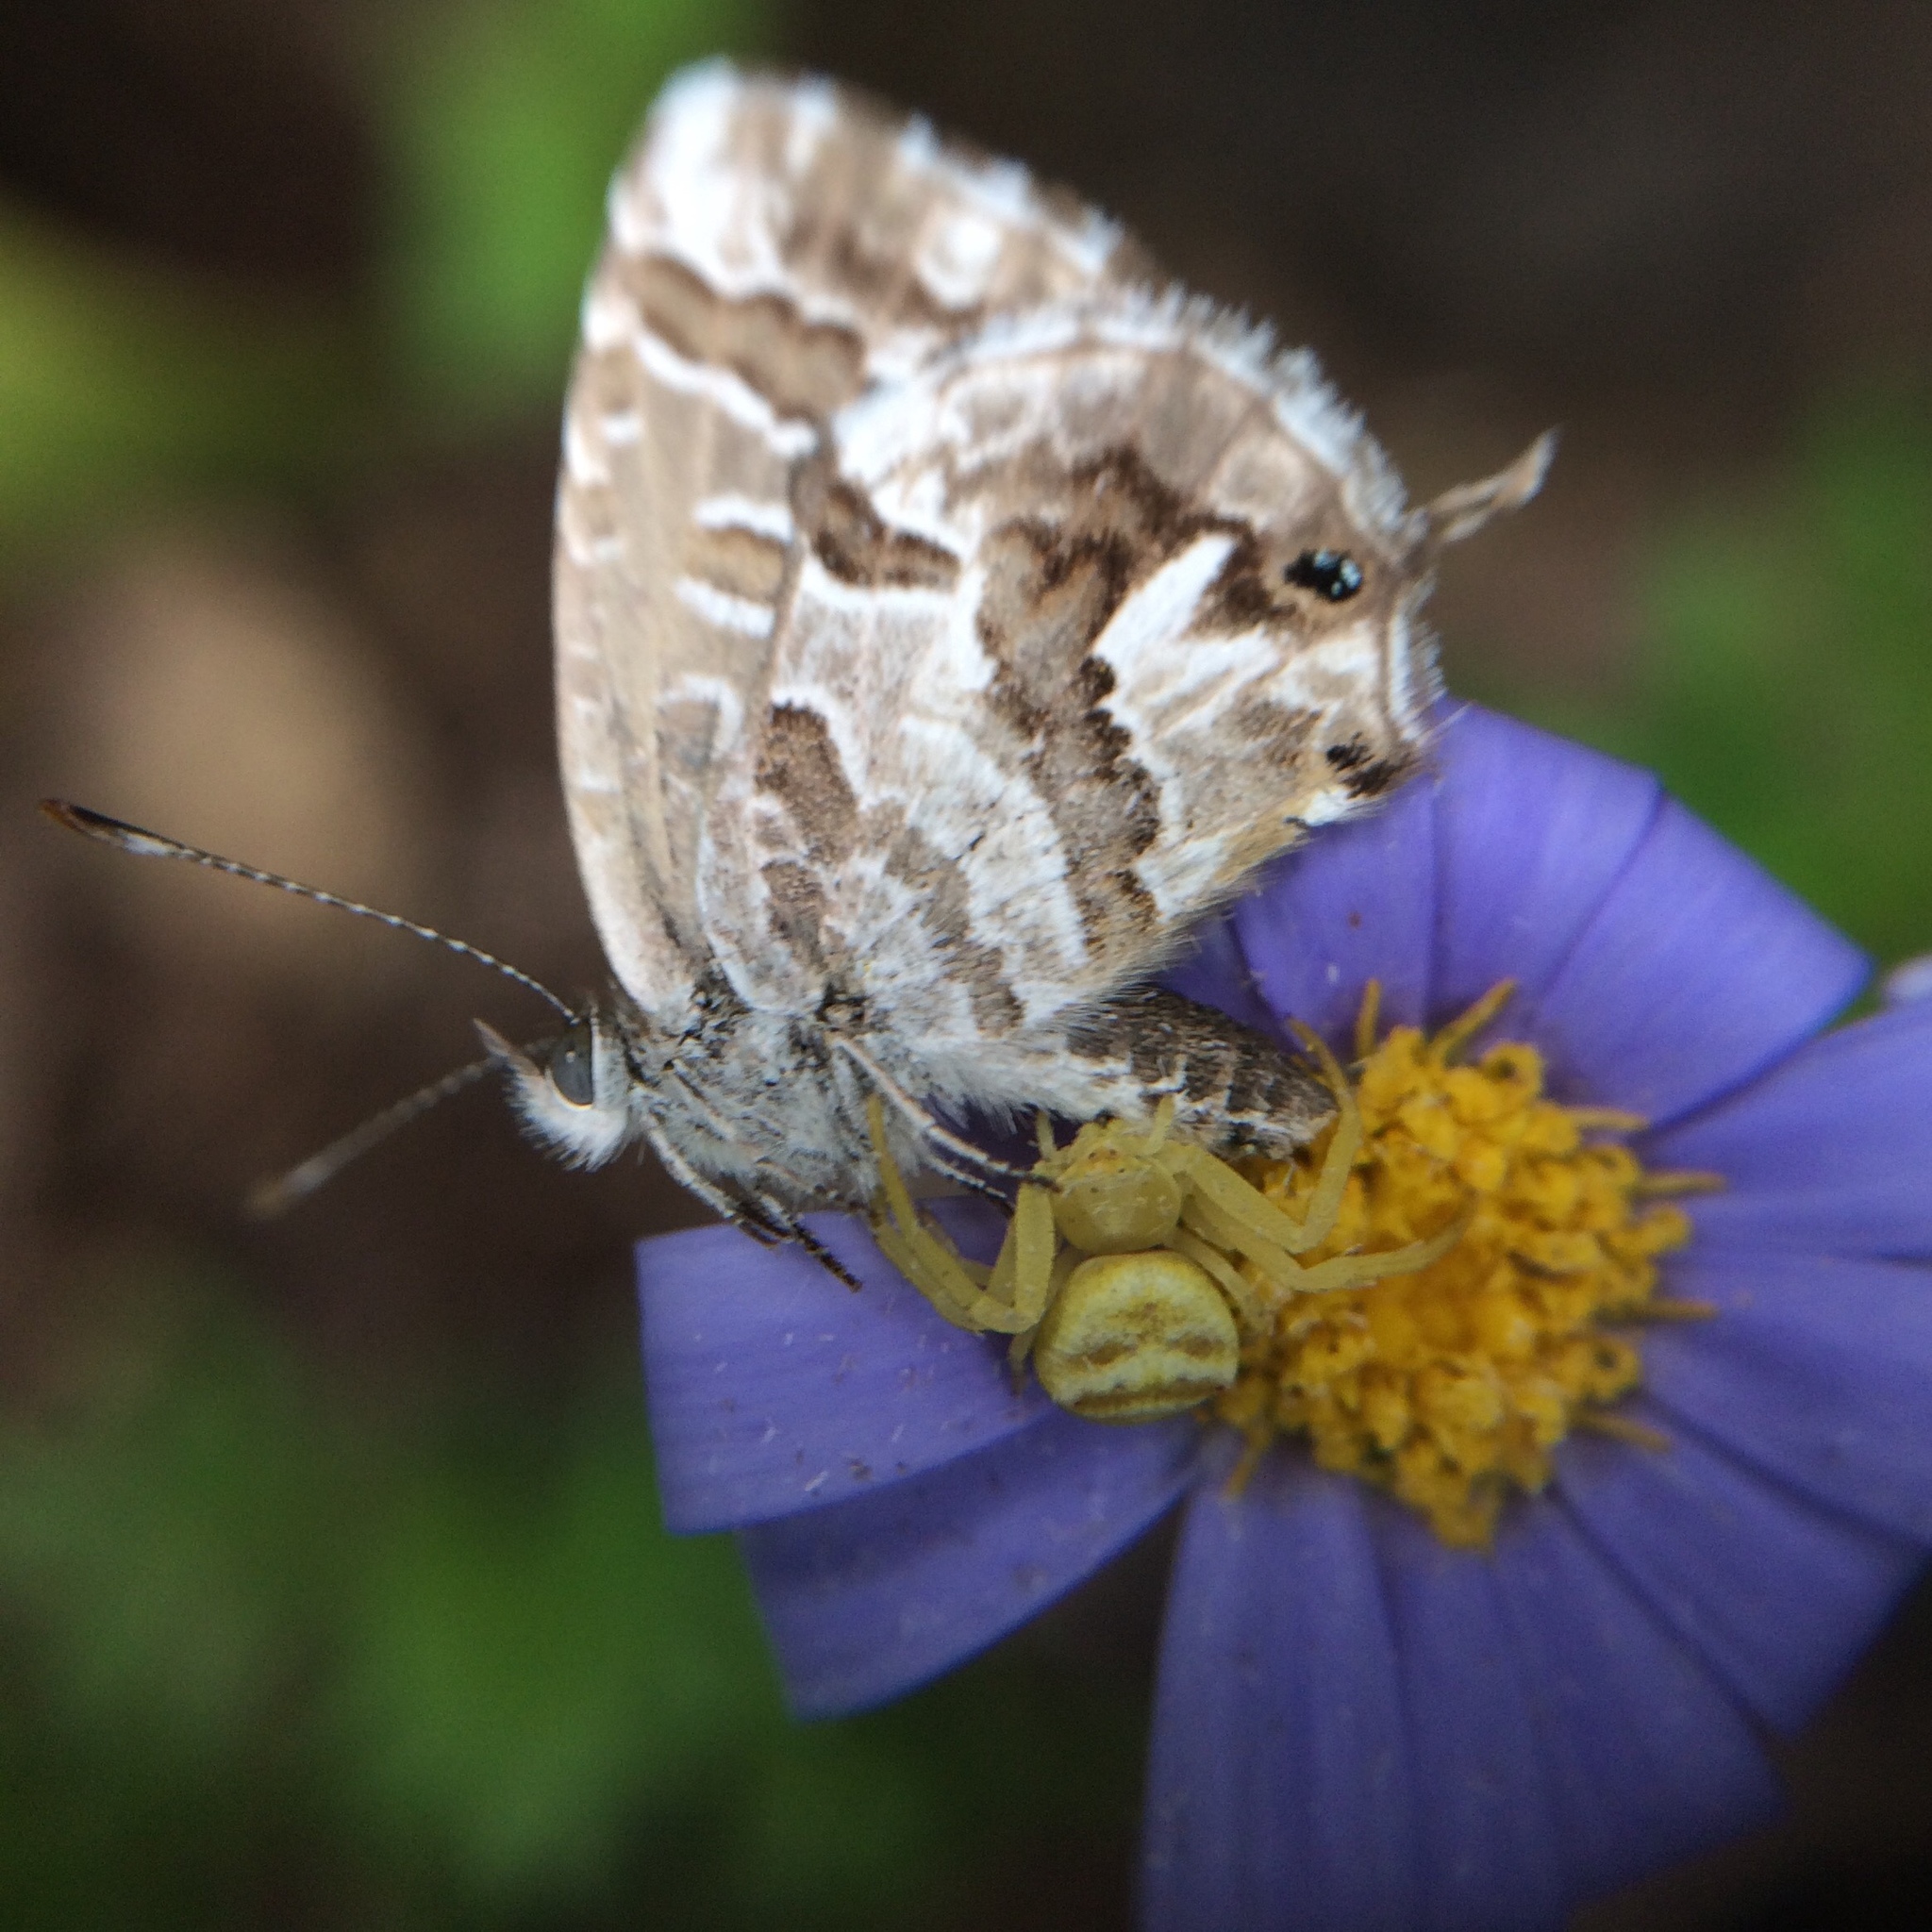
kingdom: Animalia
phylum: Arthropoda
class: Insecta
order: Lepidoptera
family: Lycaenidae
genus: Cacyreus
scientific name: Cacyreus fracta
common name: Water bronze
